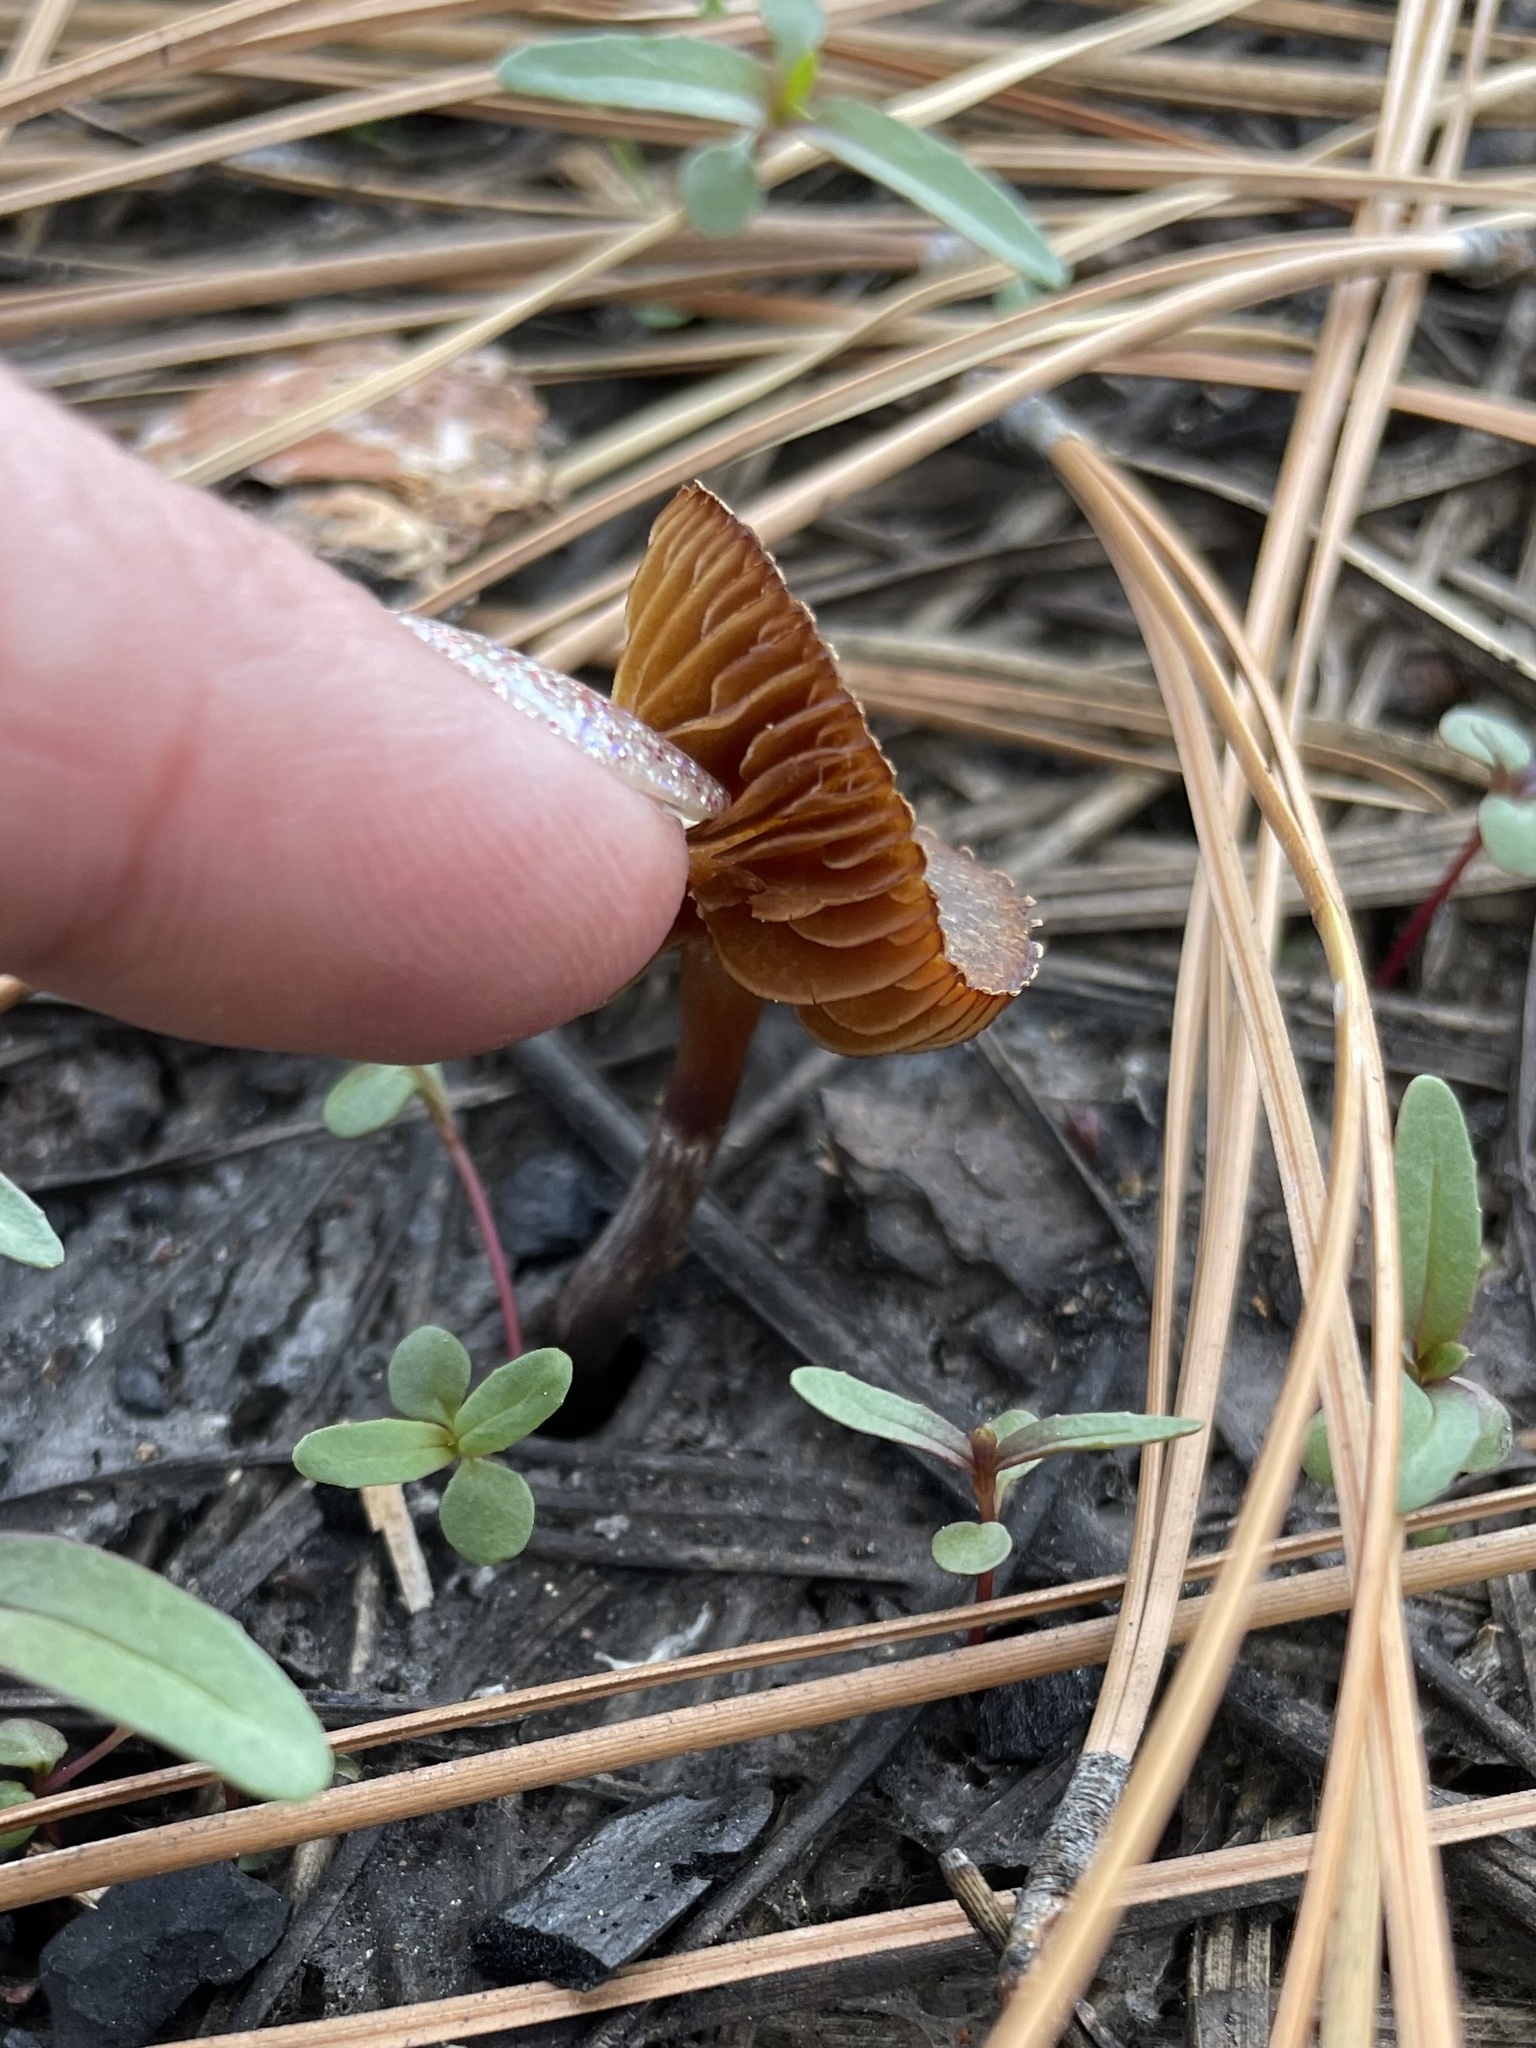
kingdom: Fungi
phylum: Basidiomycota
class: Agaricomycetes
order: Agaricales
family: Crassisporiaceae
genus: Crassisporium
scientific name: Crassisporium funariophilum
